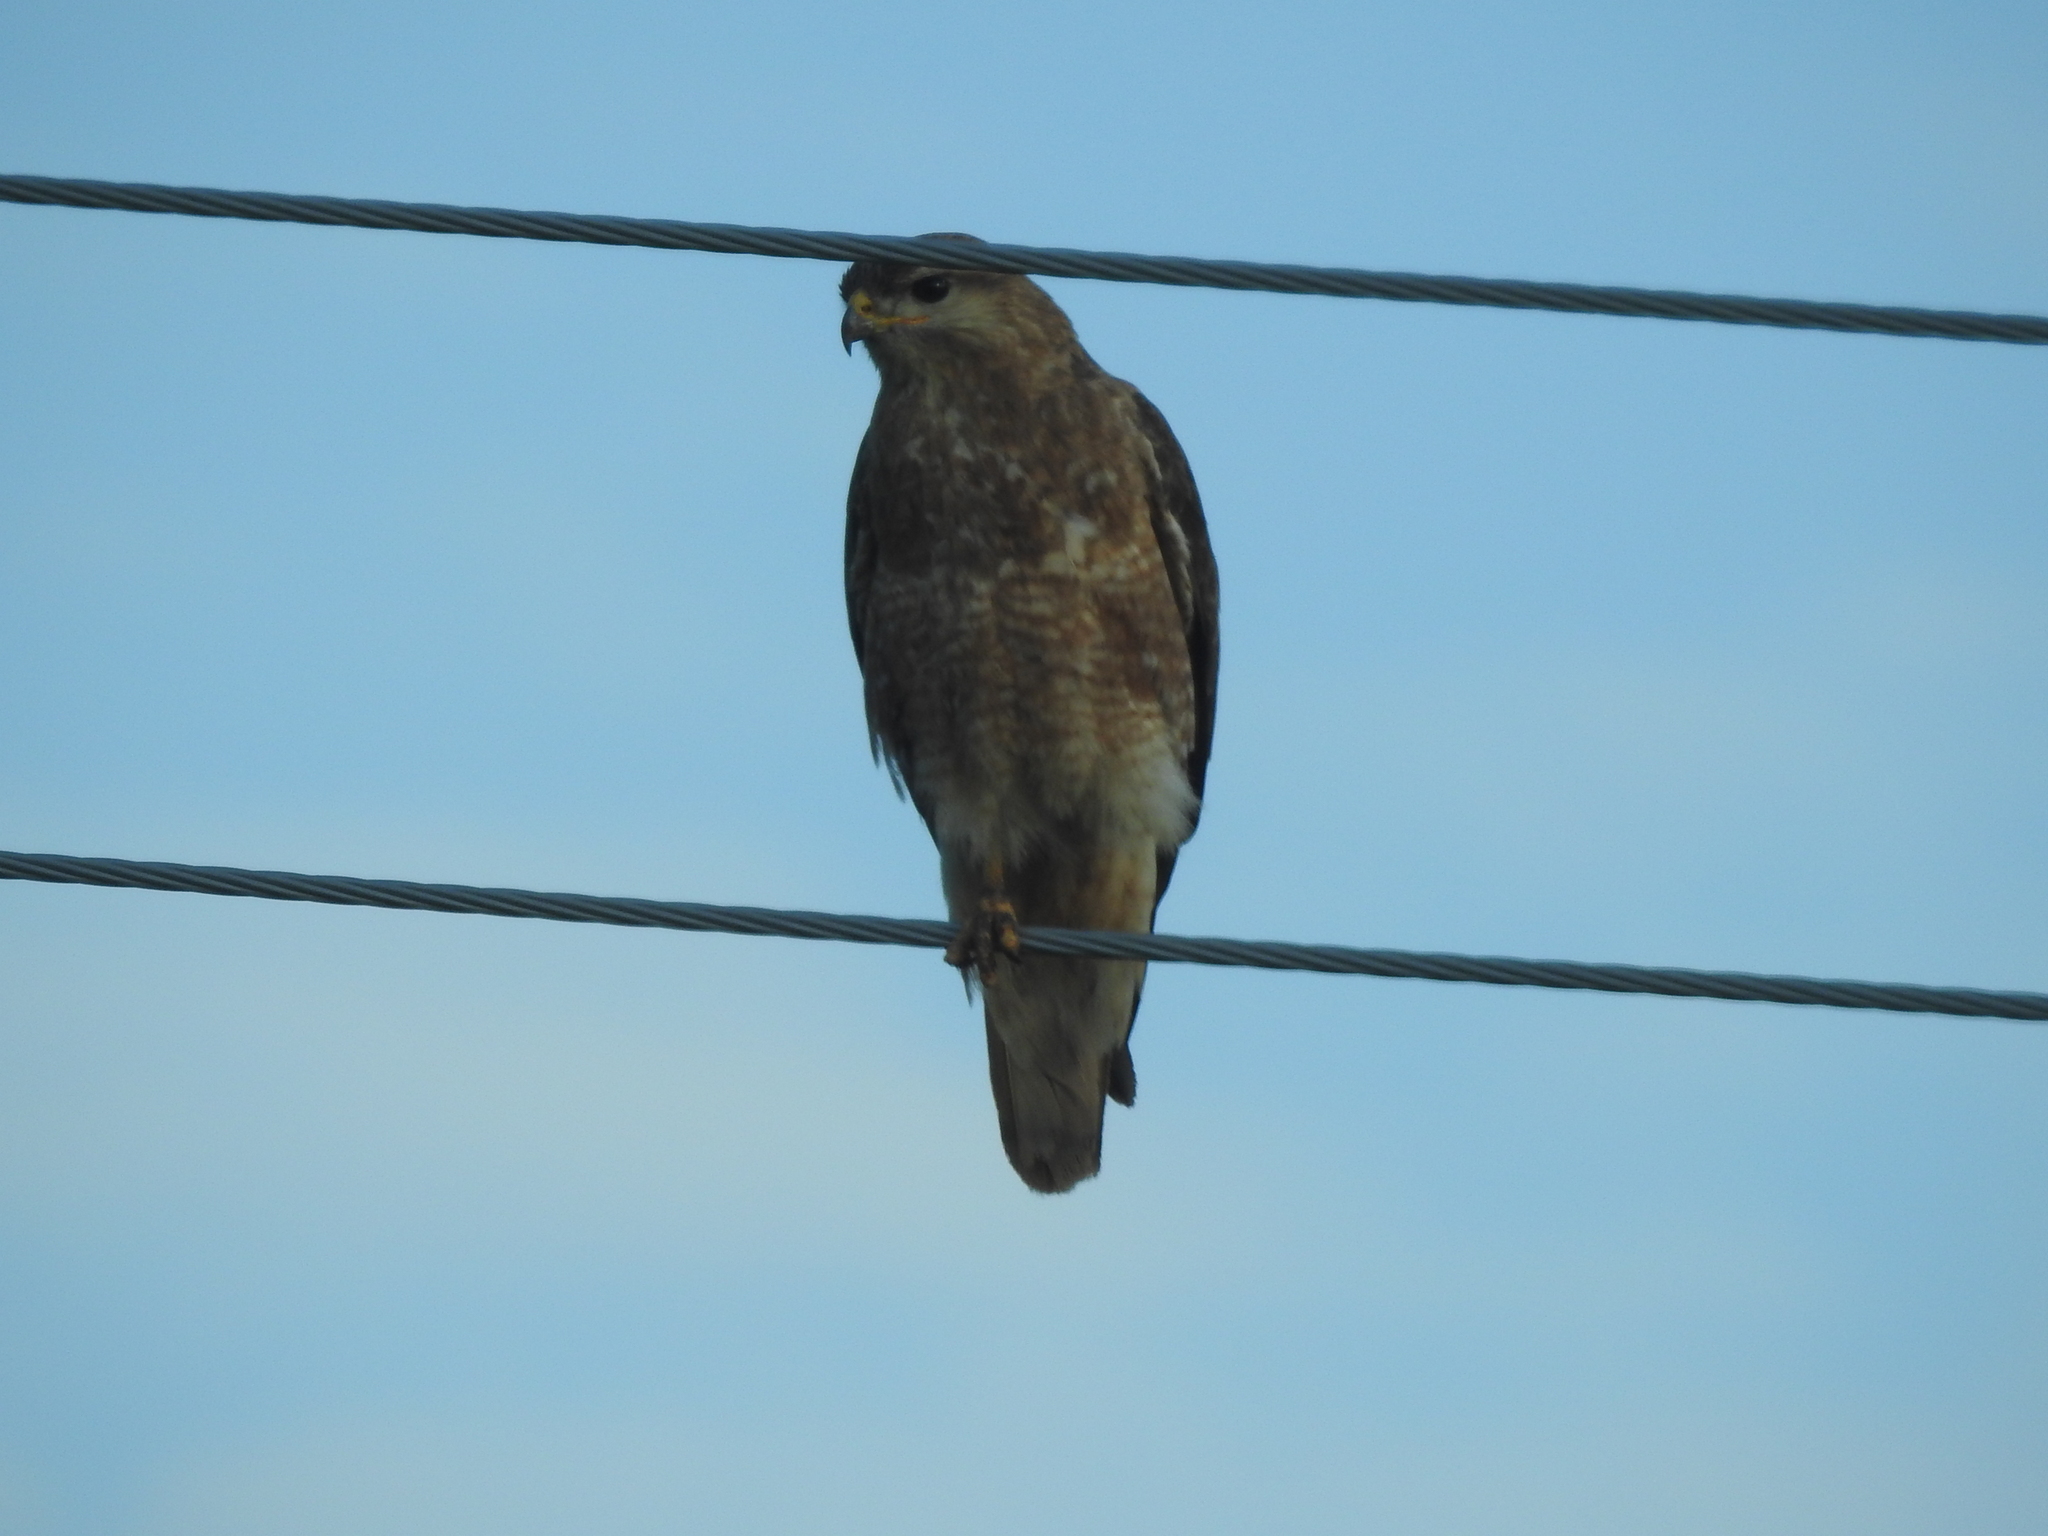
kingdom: Animalia
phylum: Chordata
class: Aves
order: Accipitriformes
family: Accipitridae
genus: Buteo
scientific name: Buteo buteo
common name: Common buzzard
